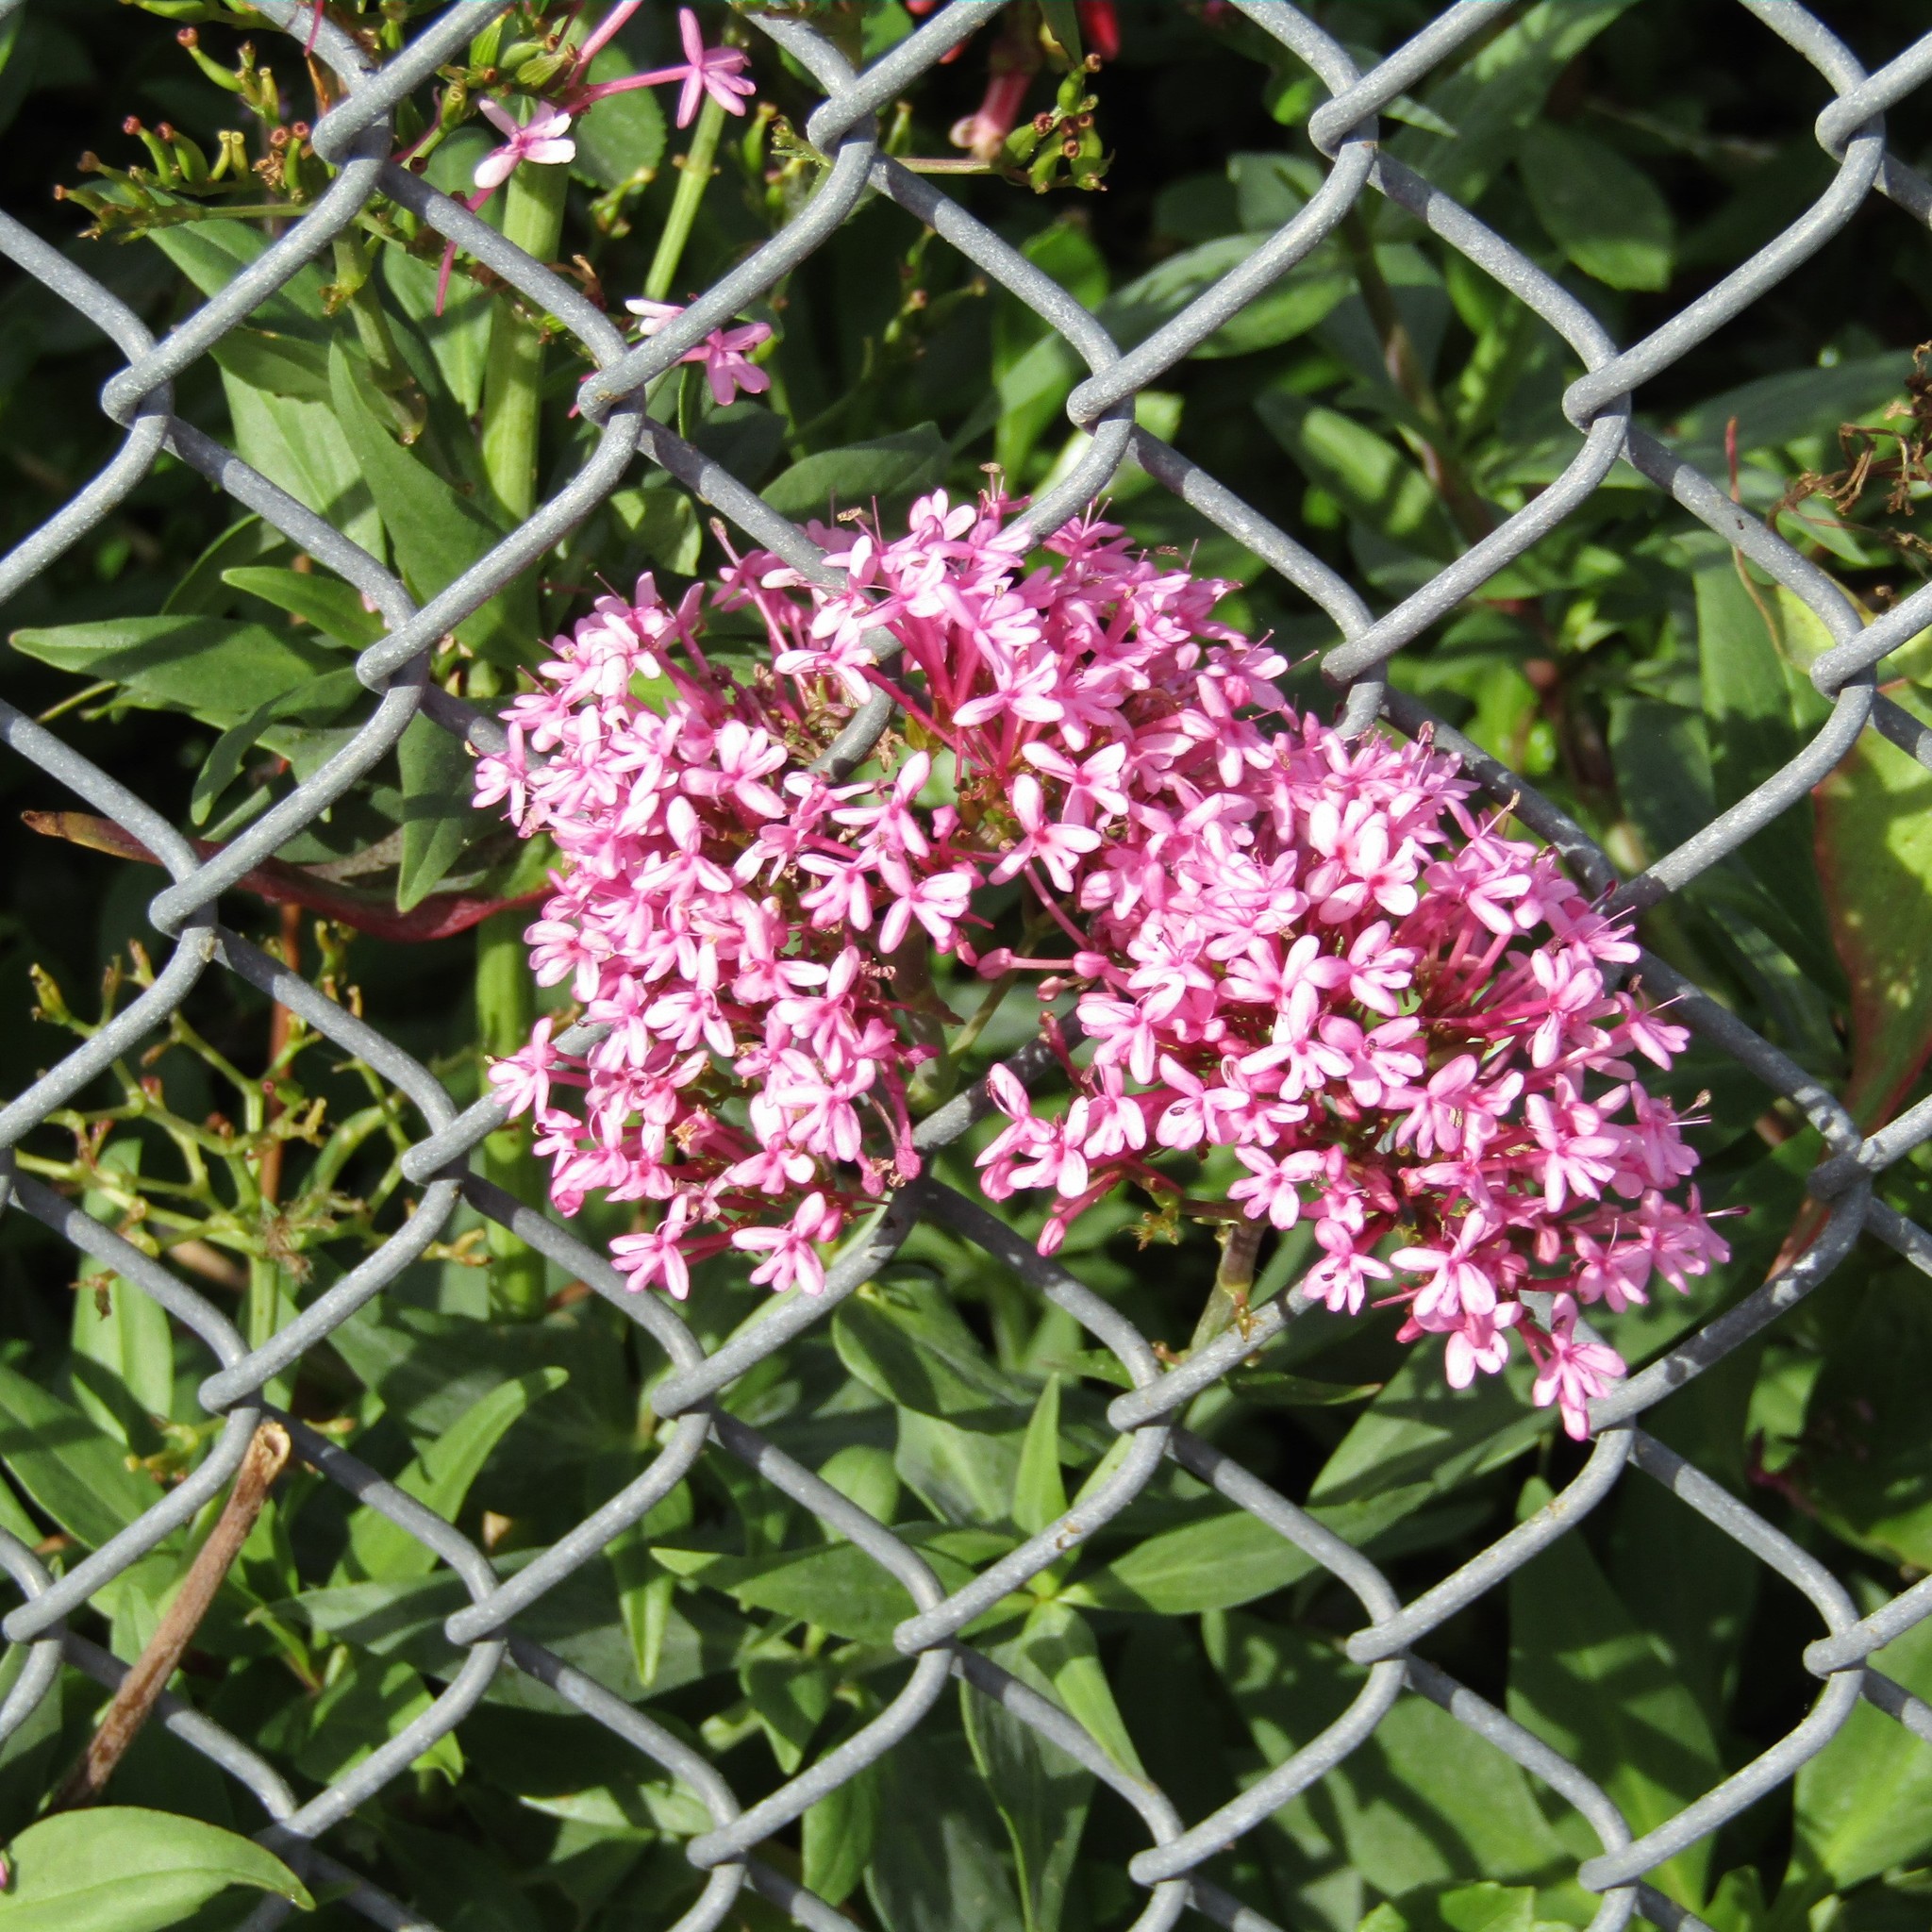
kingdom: Plantae
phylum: Tracheophyta
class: Magnoliopsida
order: Dipsacales
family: Caprifoliaceae
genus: Centranthus
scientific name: Centranthus ruber
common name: Red valerian
